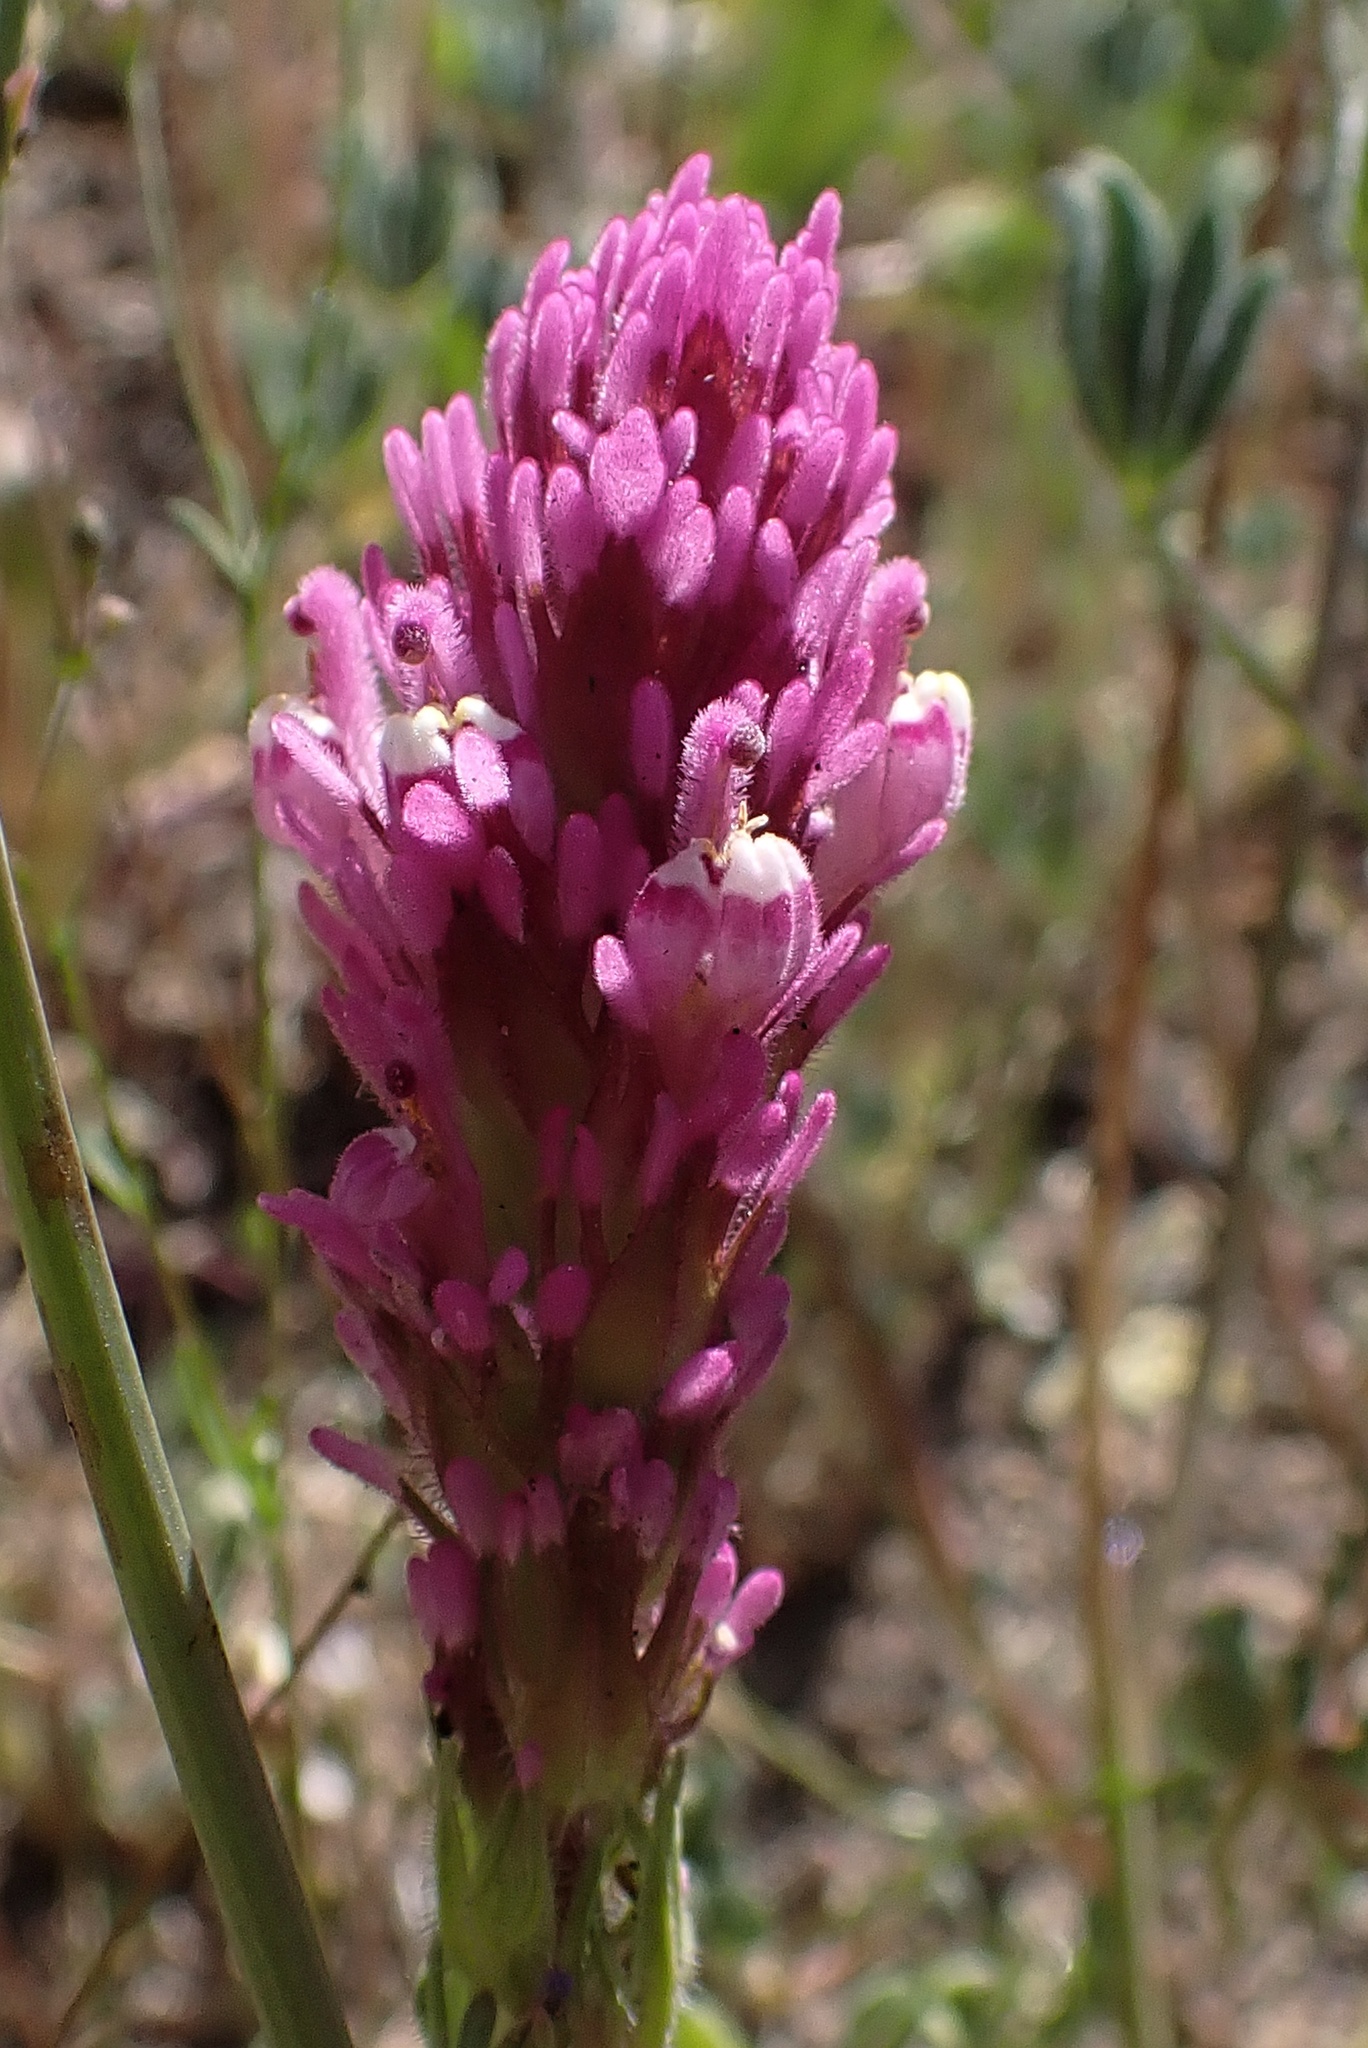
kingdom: Plantae
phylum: Tracheophyta
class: Magnoliopsida
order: Lamiales
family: Orobanchaceae
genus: Castilleja
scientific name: Castilleja exserta
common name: Purple owl-clover
